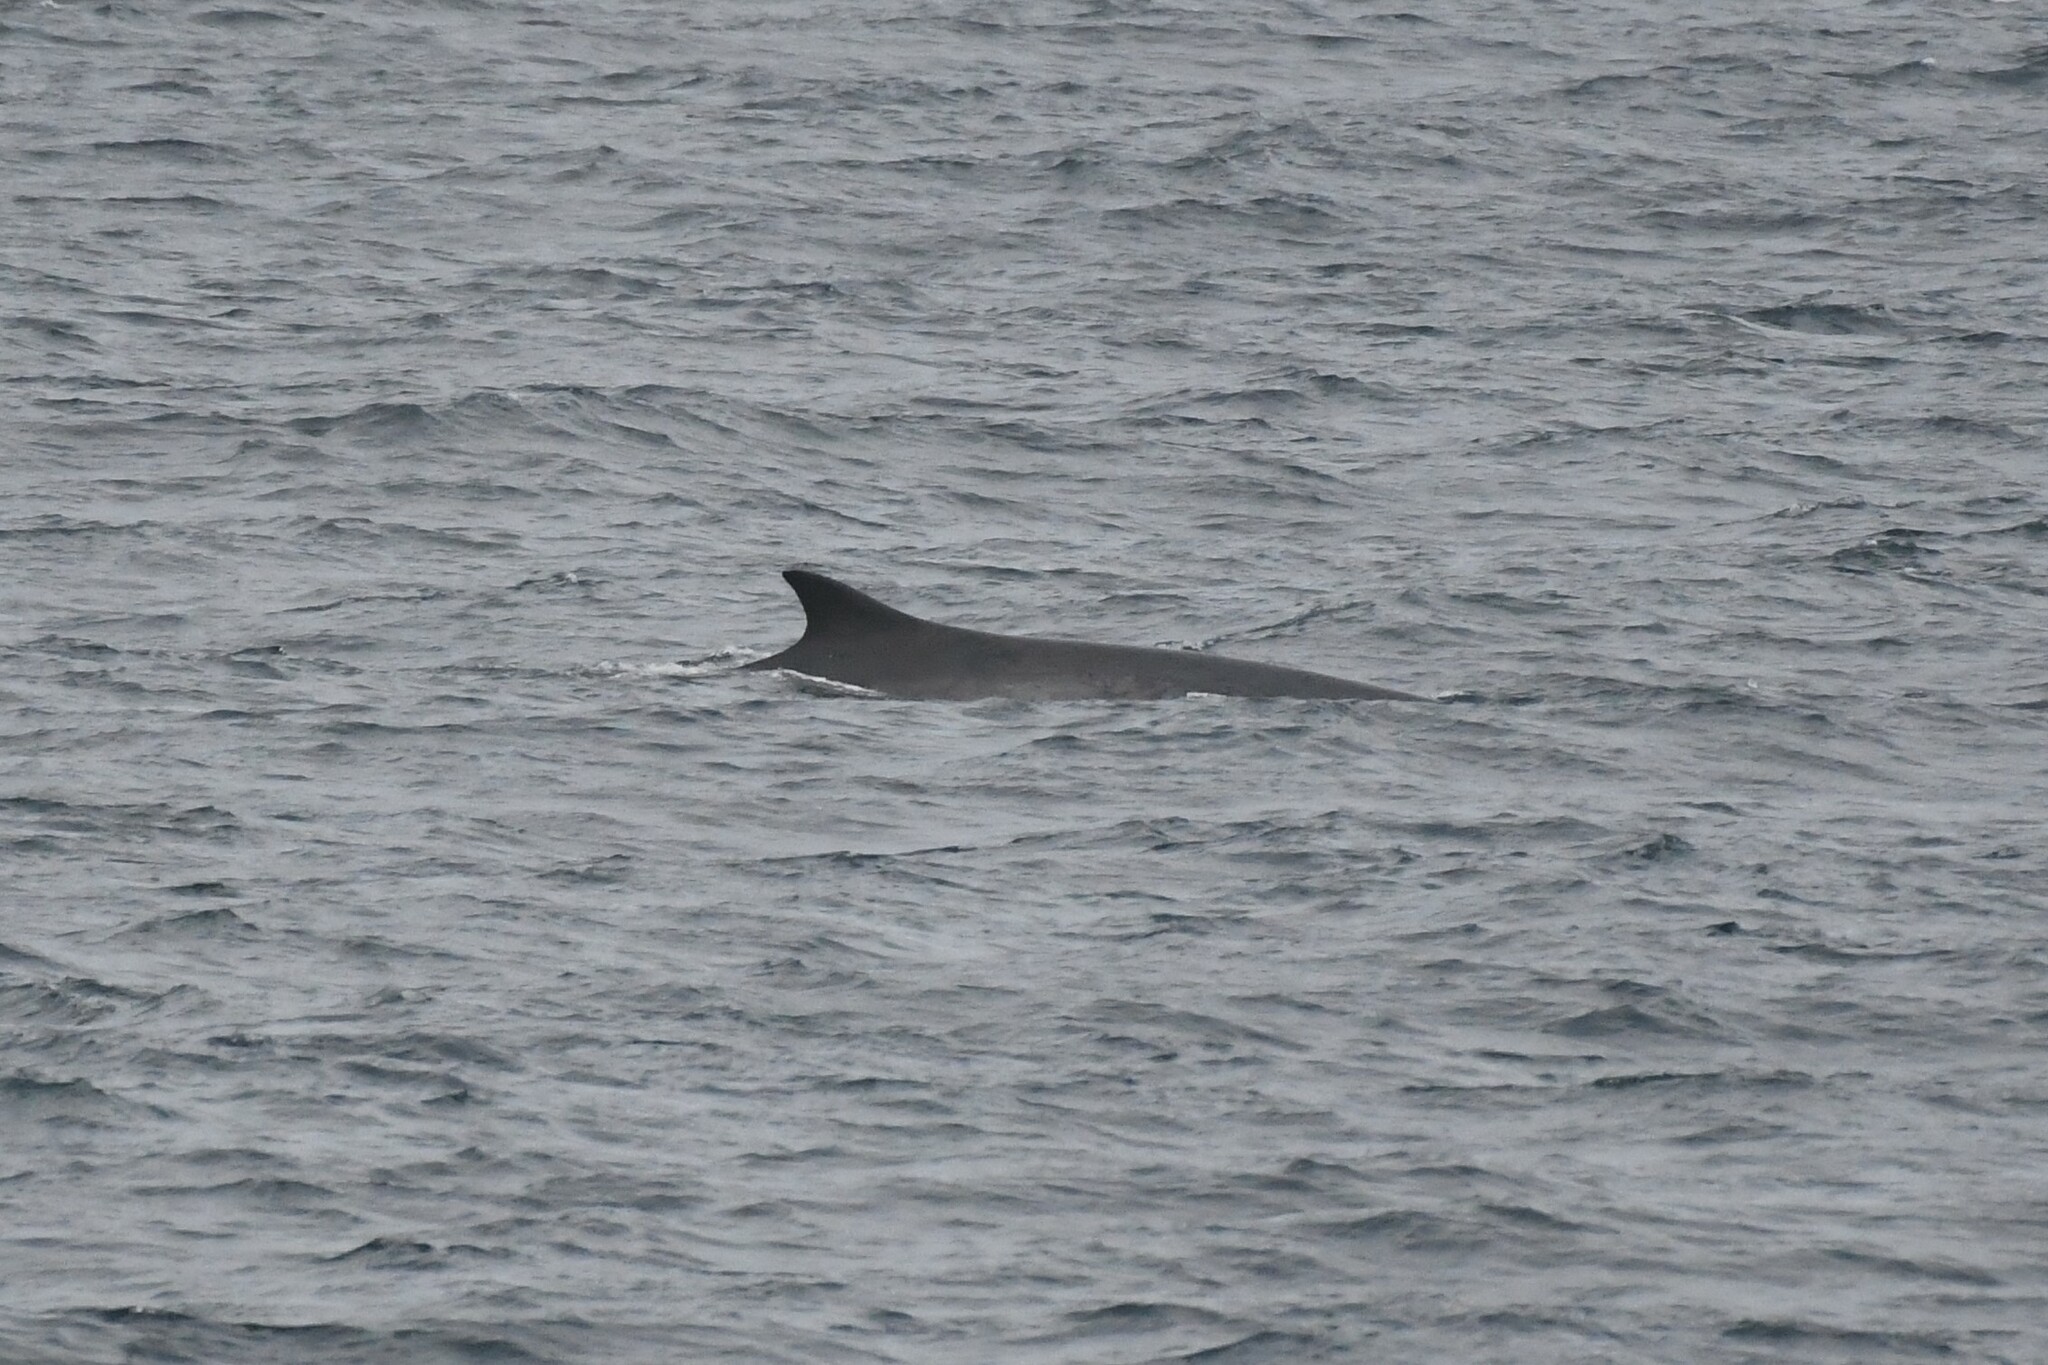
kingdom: Animalia
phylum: Chordata
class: Mammalia
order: Cetacea
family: Balaenopteridae
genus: Balaenoptera
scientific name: Balaenoptera physalus
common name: Fin whale
